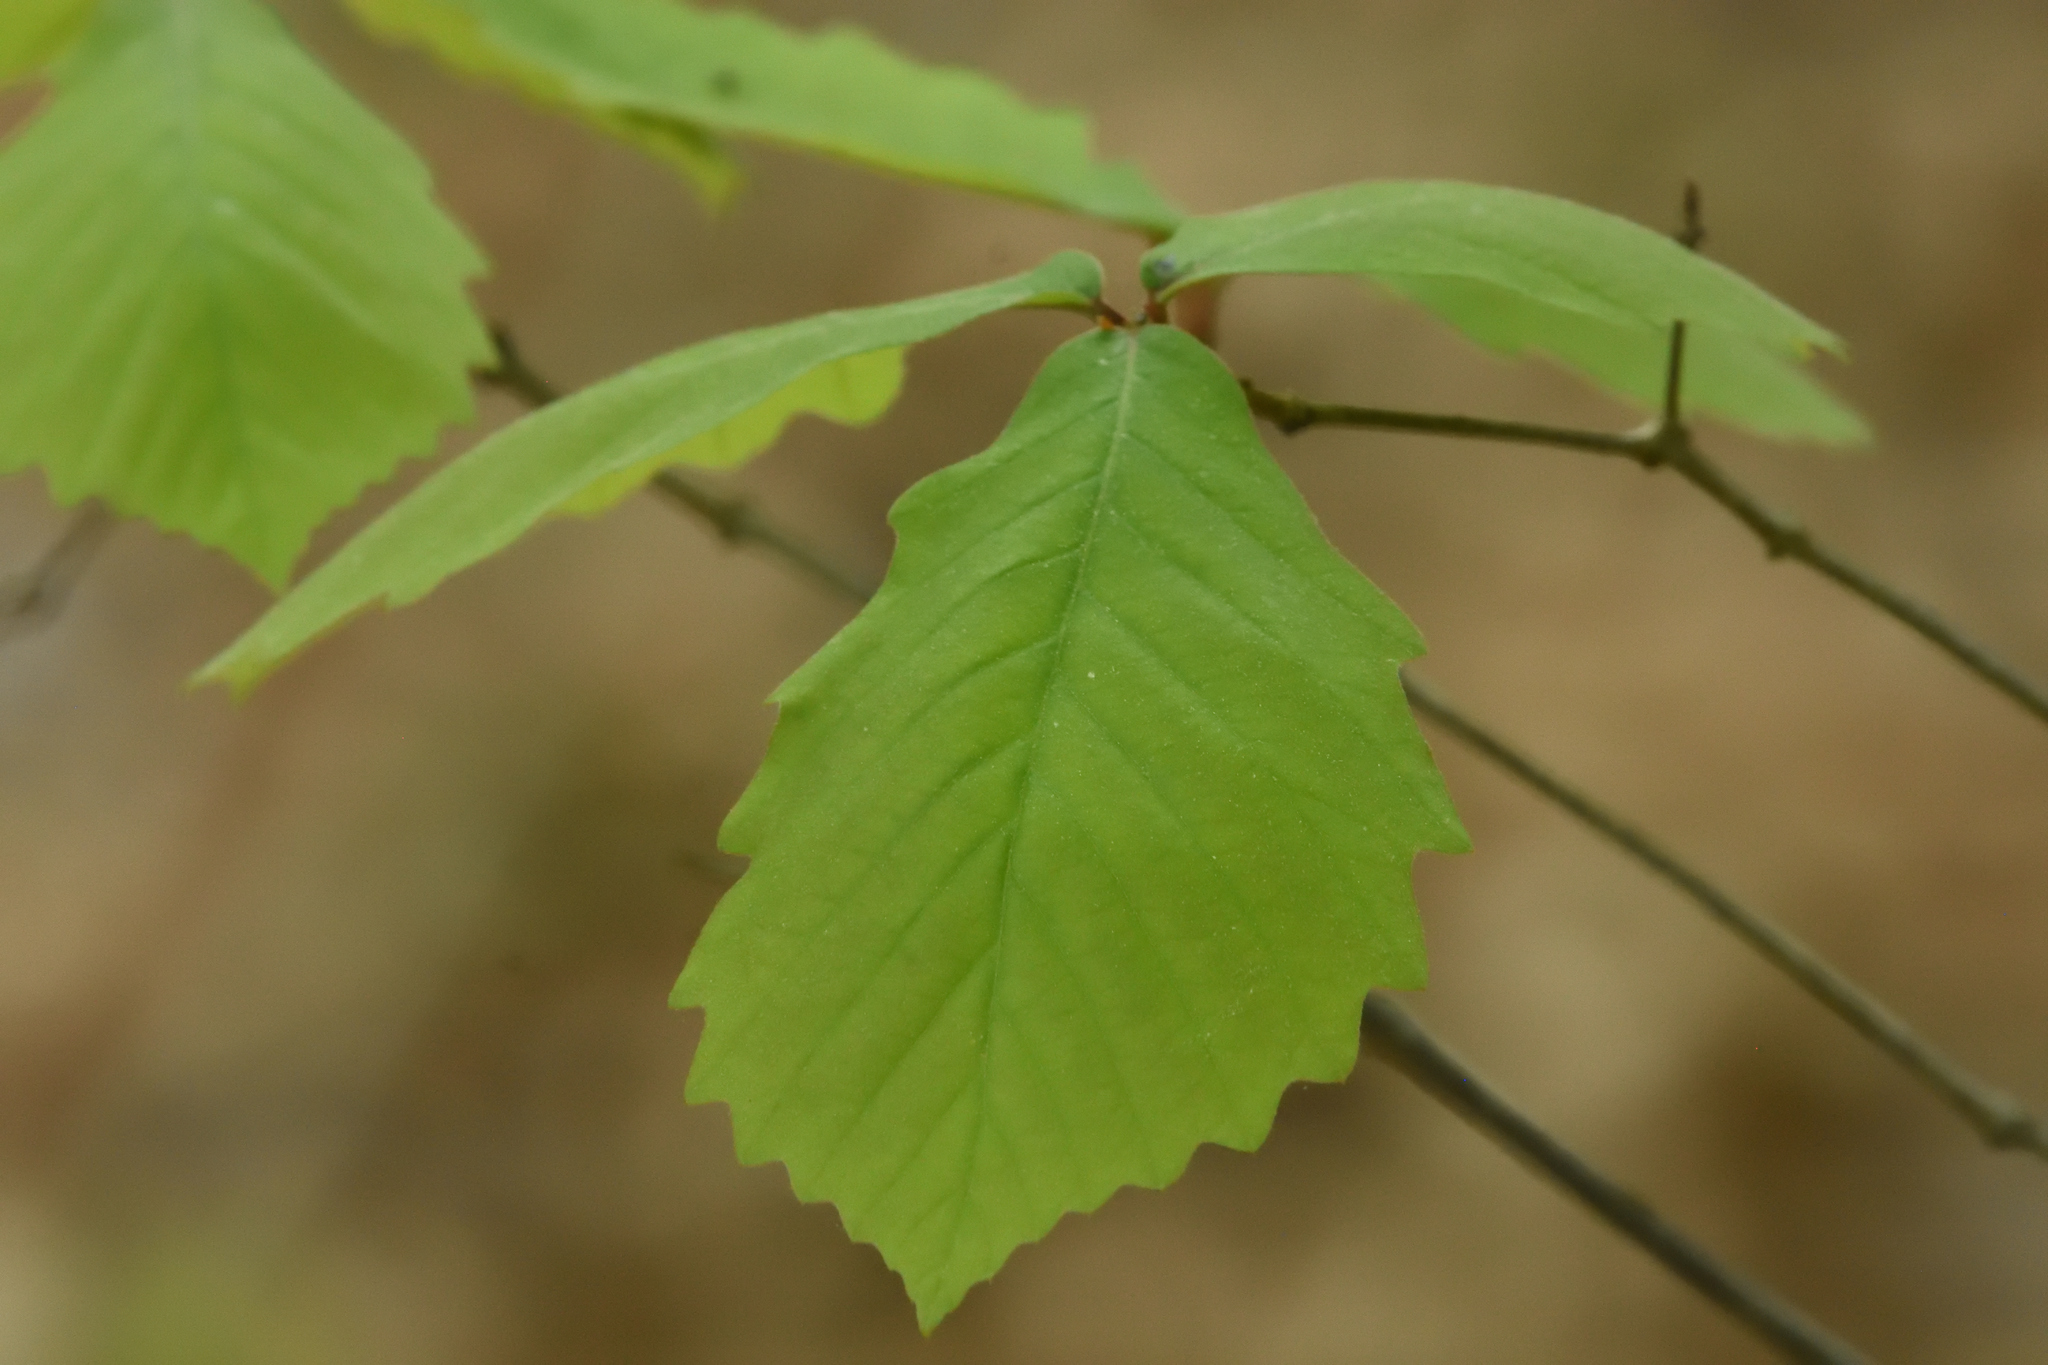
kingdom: Plantae
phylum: Tracheophyta
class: Magnoliopsida
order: Fagales
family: Fagaceae
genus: Quercus
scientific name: Quercus montana
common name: Chestnut oak
